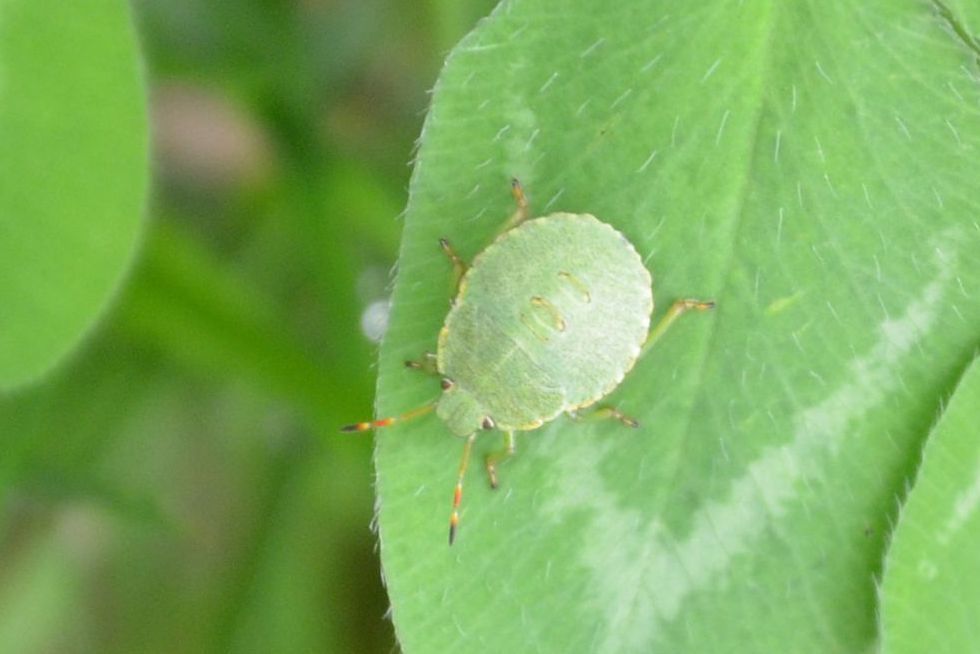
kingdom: Animalia
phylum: Arthropoda
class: Insecta
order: Hemiptera
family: Pentatomidae
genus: Palomena
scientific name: Palomena prasina
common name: Green shieldbug
